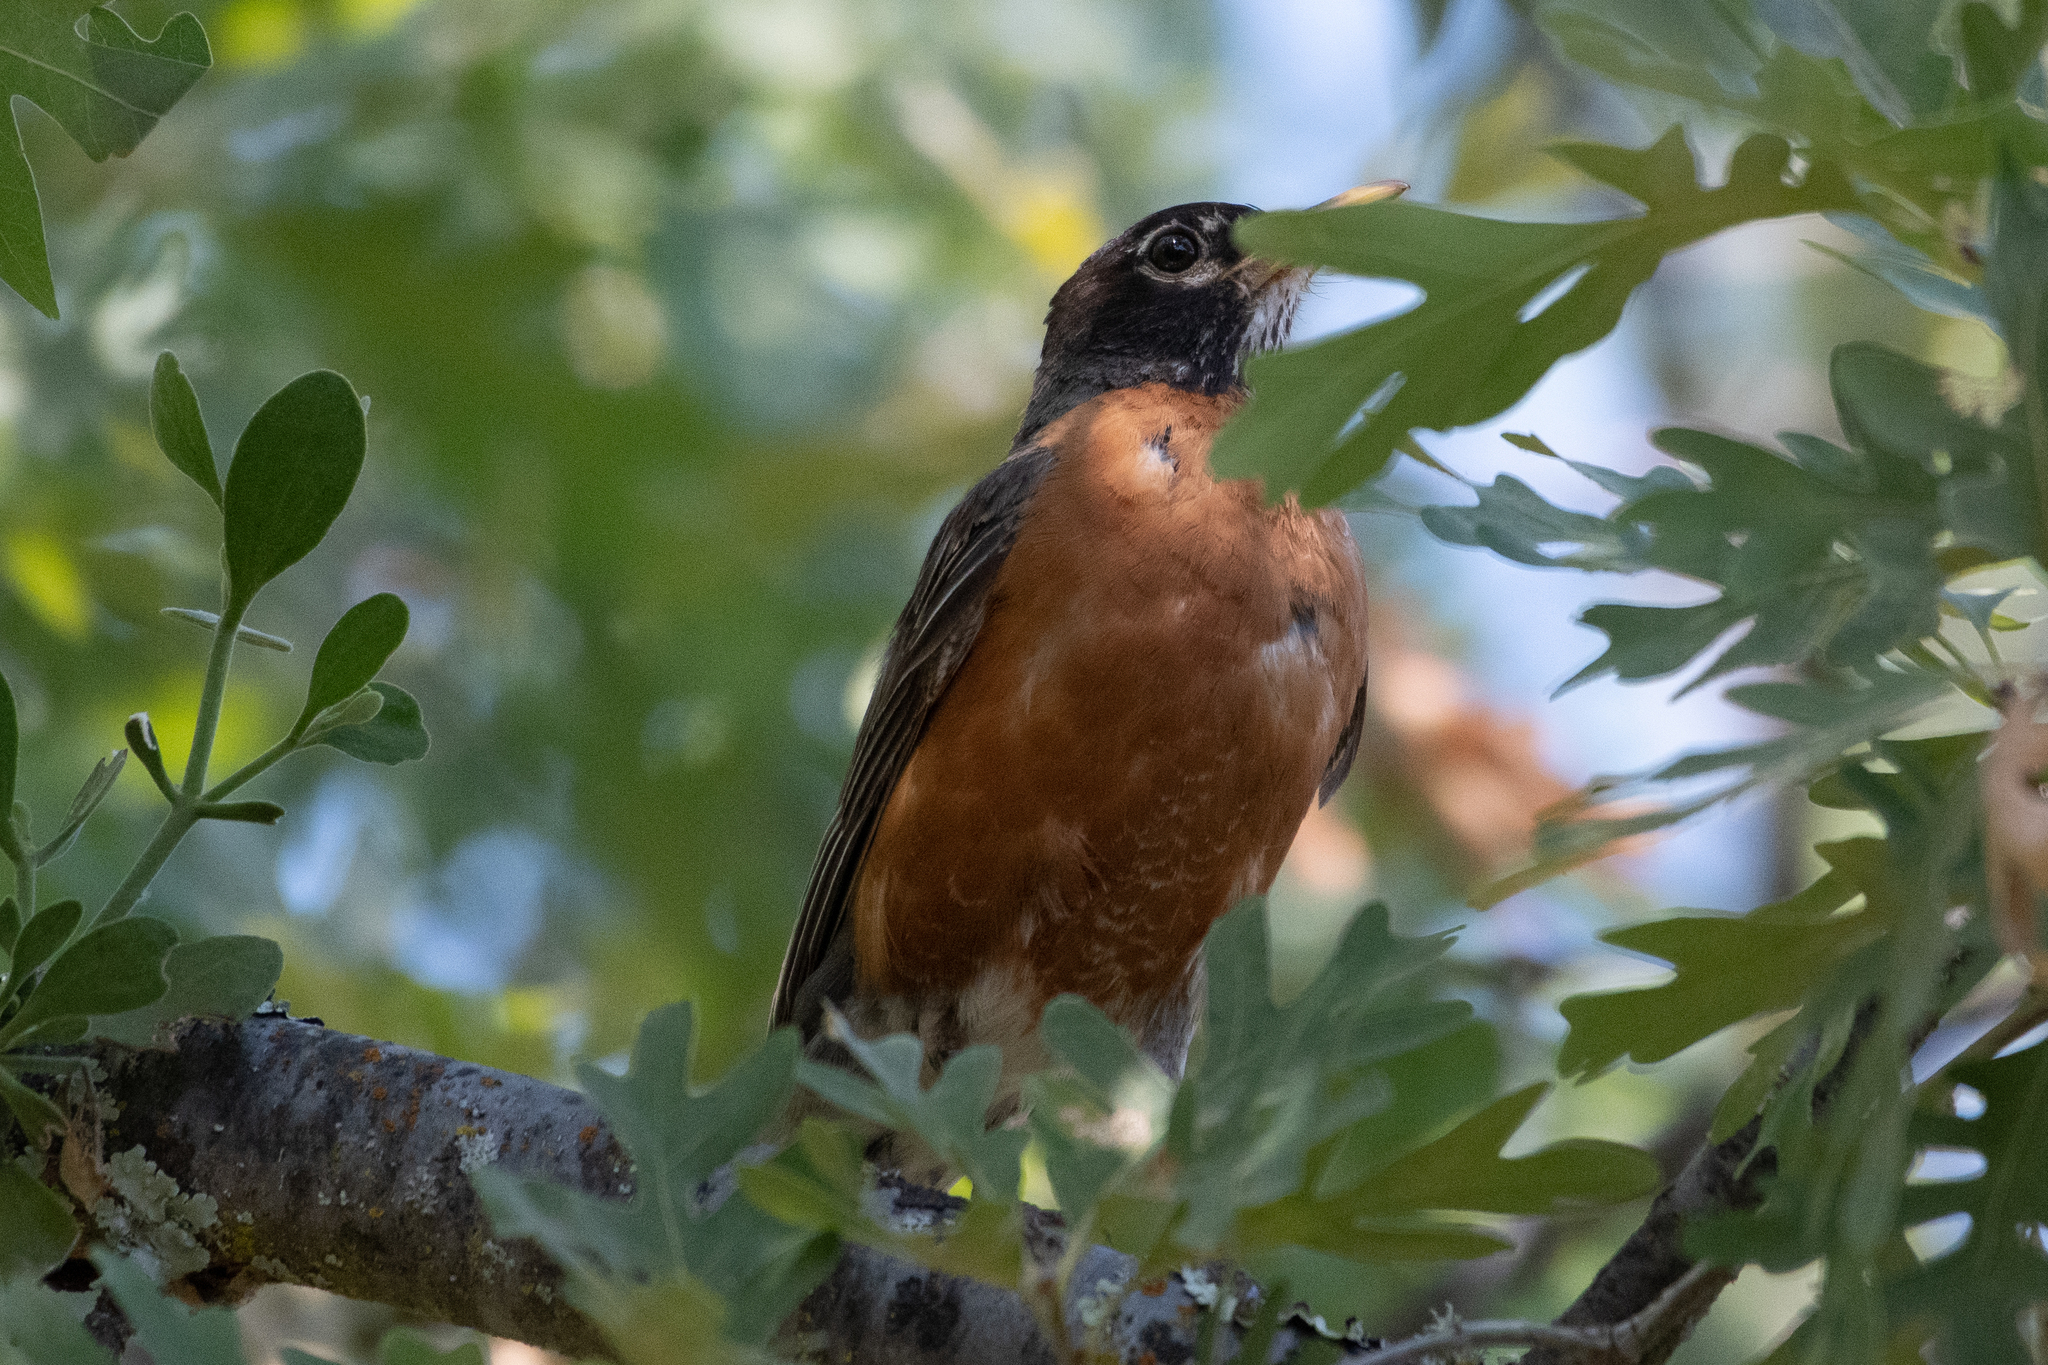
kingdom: Animalia
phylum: Chordata
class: Aves
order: Passeriformes
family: Turdidae
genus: Turdus
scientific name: Turdus migratorius
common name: American robin
